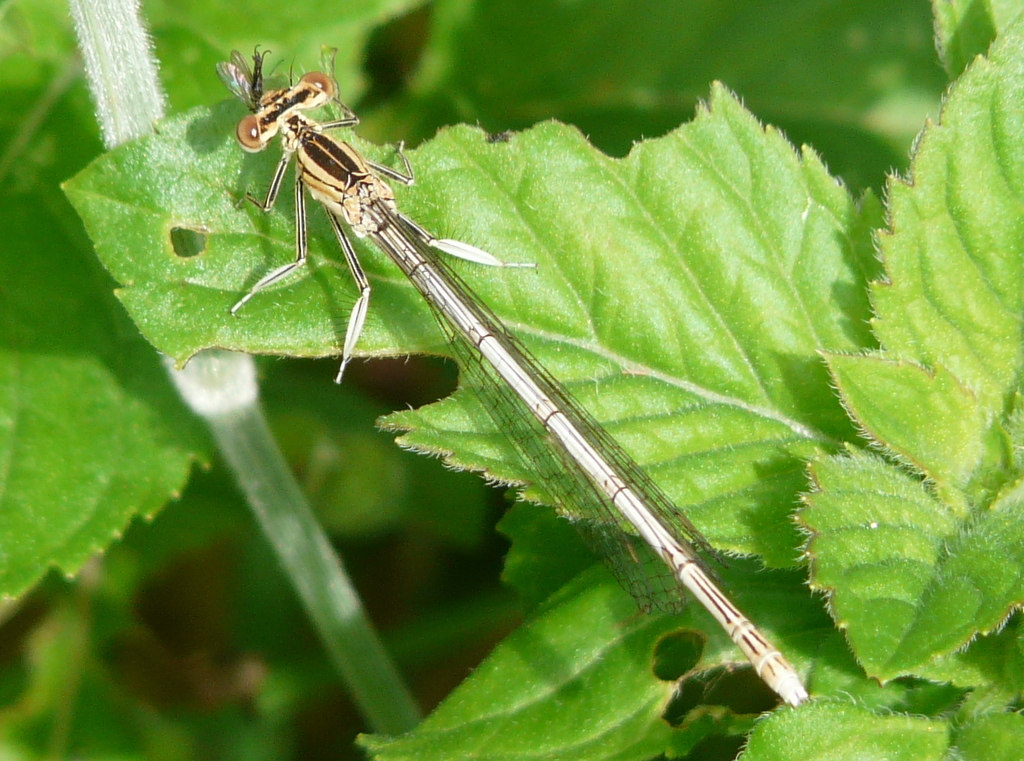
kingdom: Animalia
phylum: Arthropoda
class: Insecta
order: Odonata
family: Platycnemididae
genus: Platycnemis
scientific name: Platycnemis pennipes
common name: White-legged damselfly
